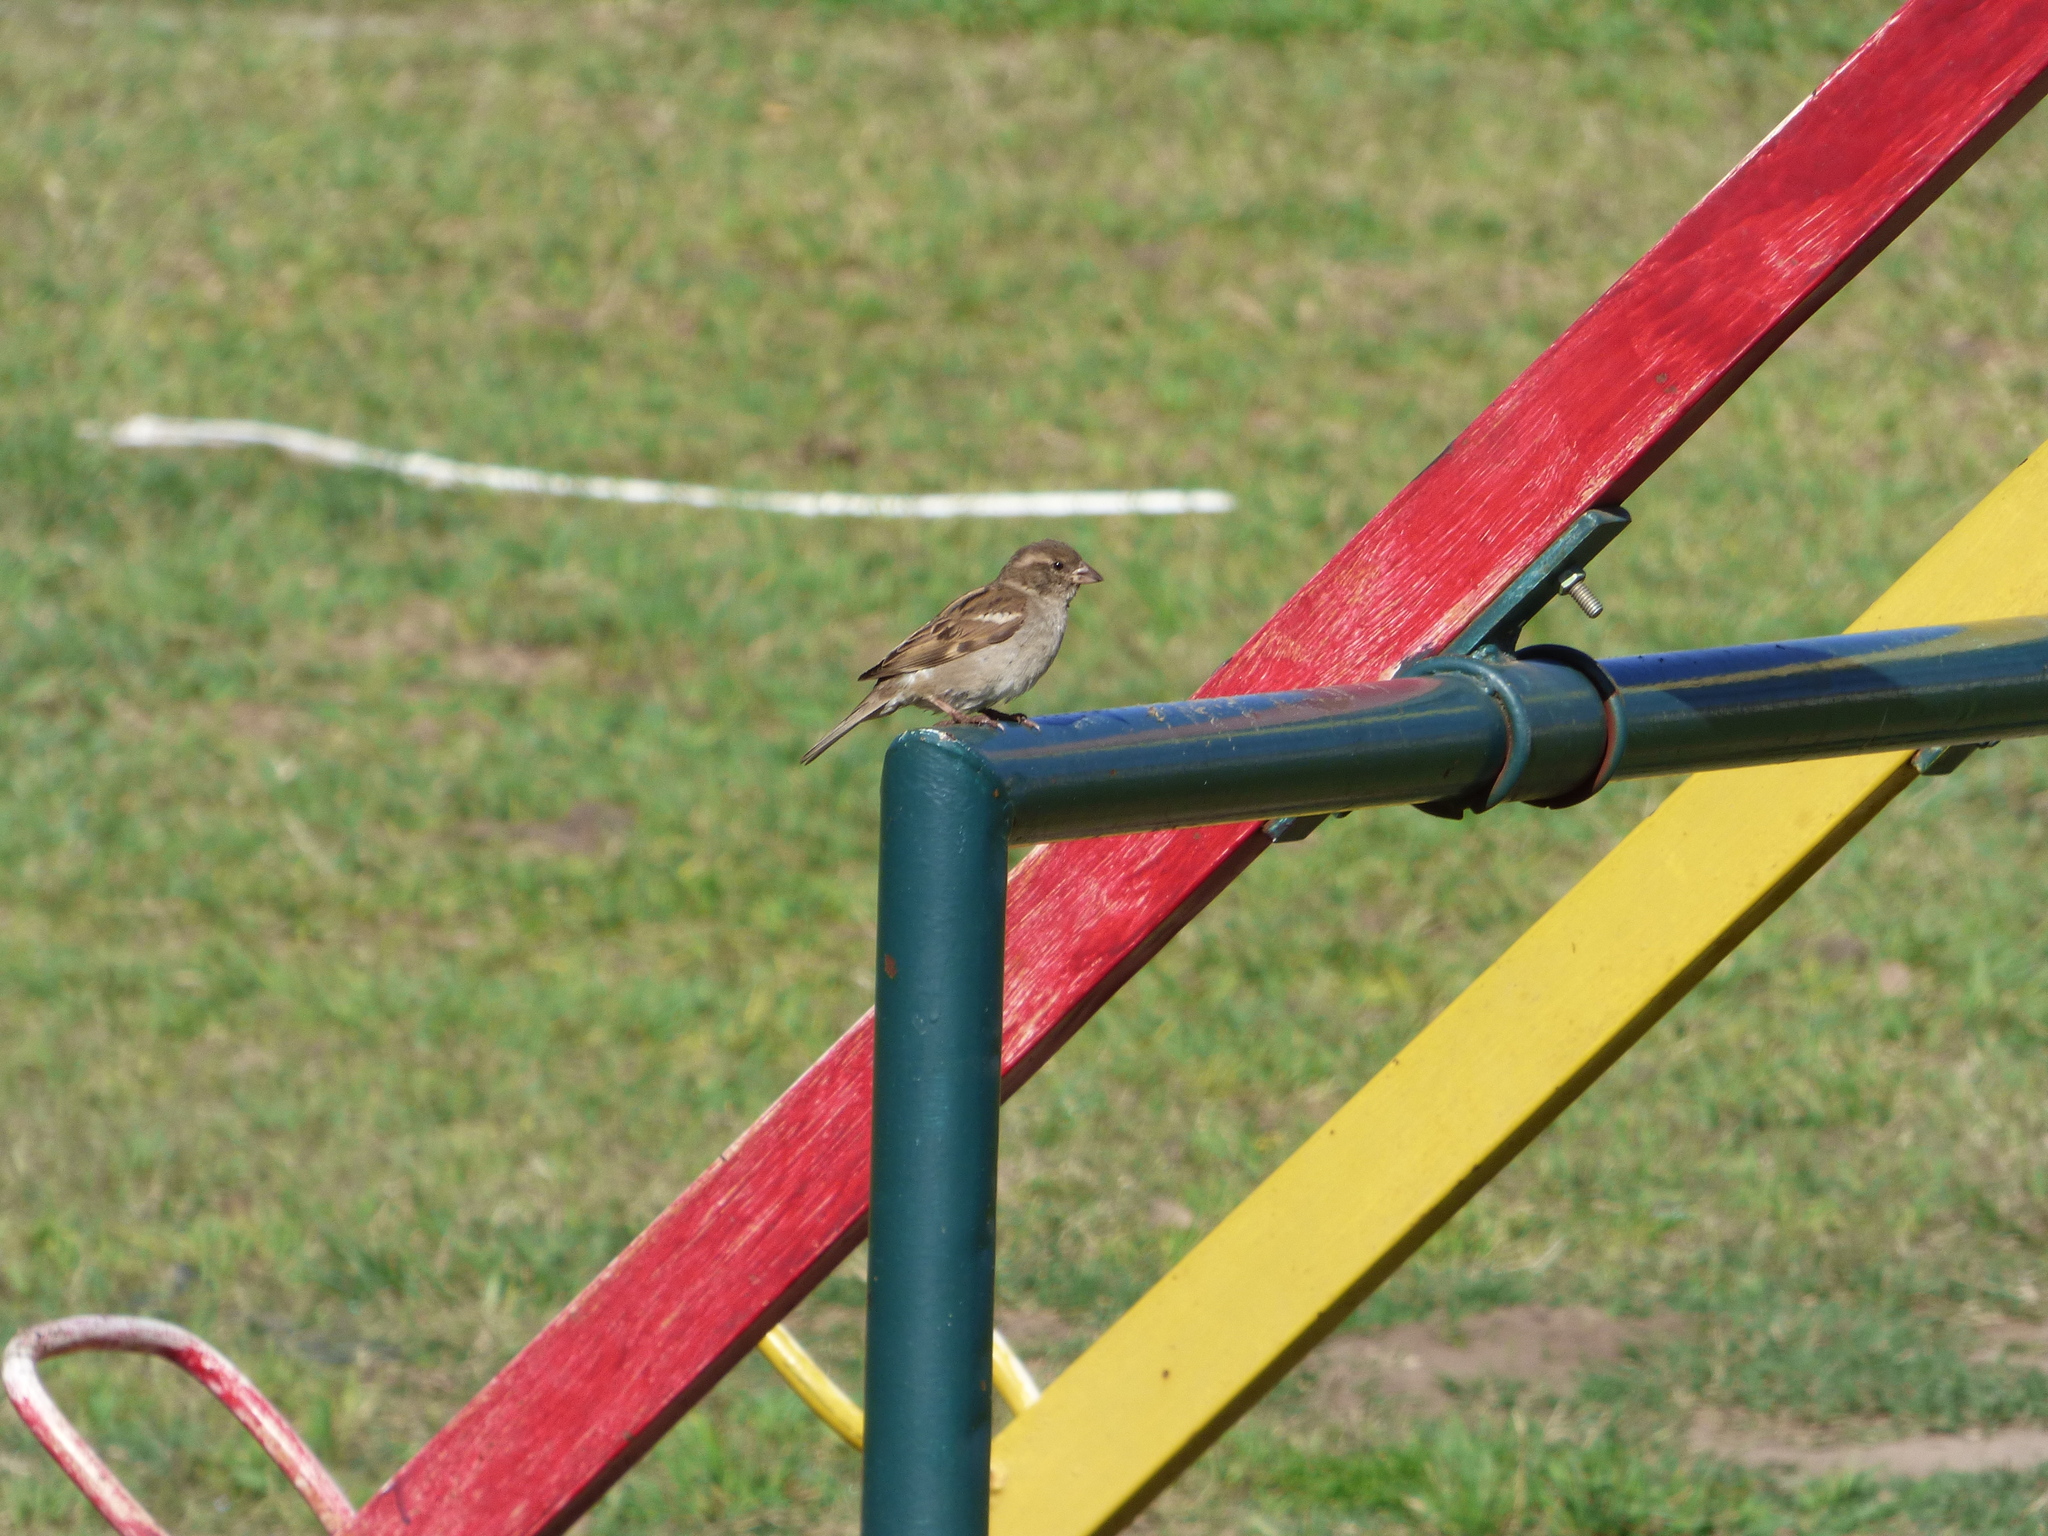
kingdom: Animalia
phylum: Chordata
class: Aves
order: Passeriformes
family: Passeridae
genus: Passer
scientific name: Passer domesticus
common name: House sparrow
